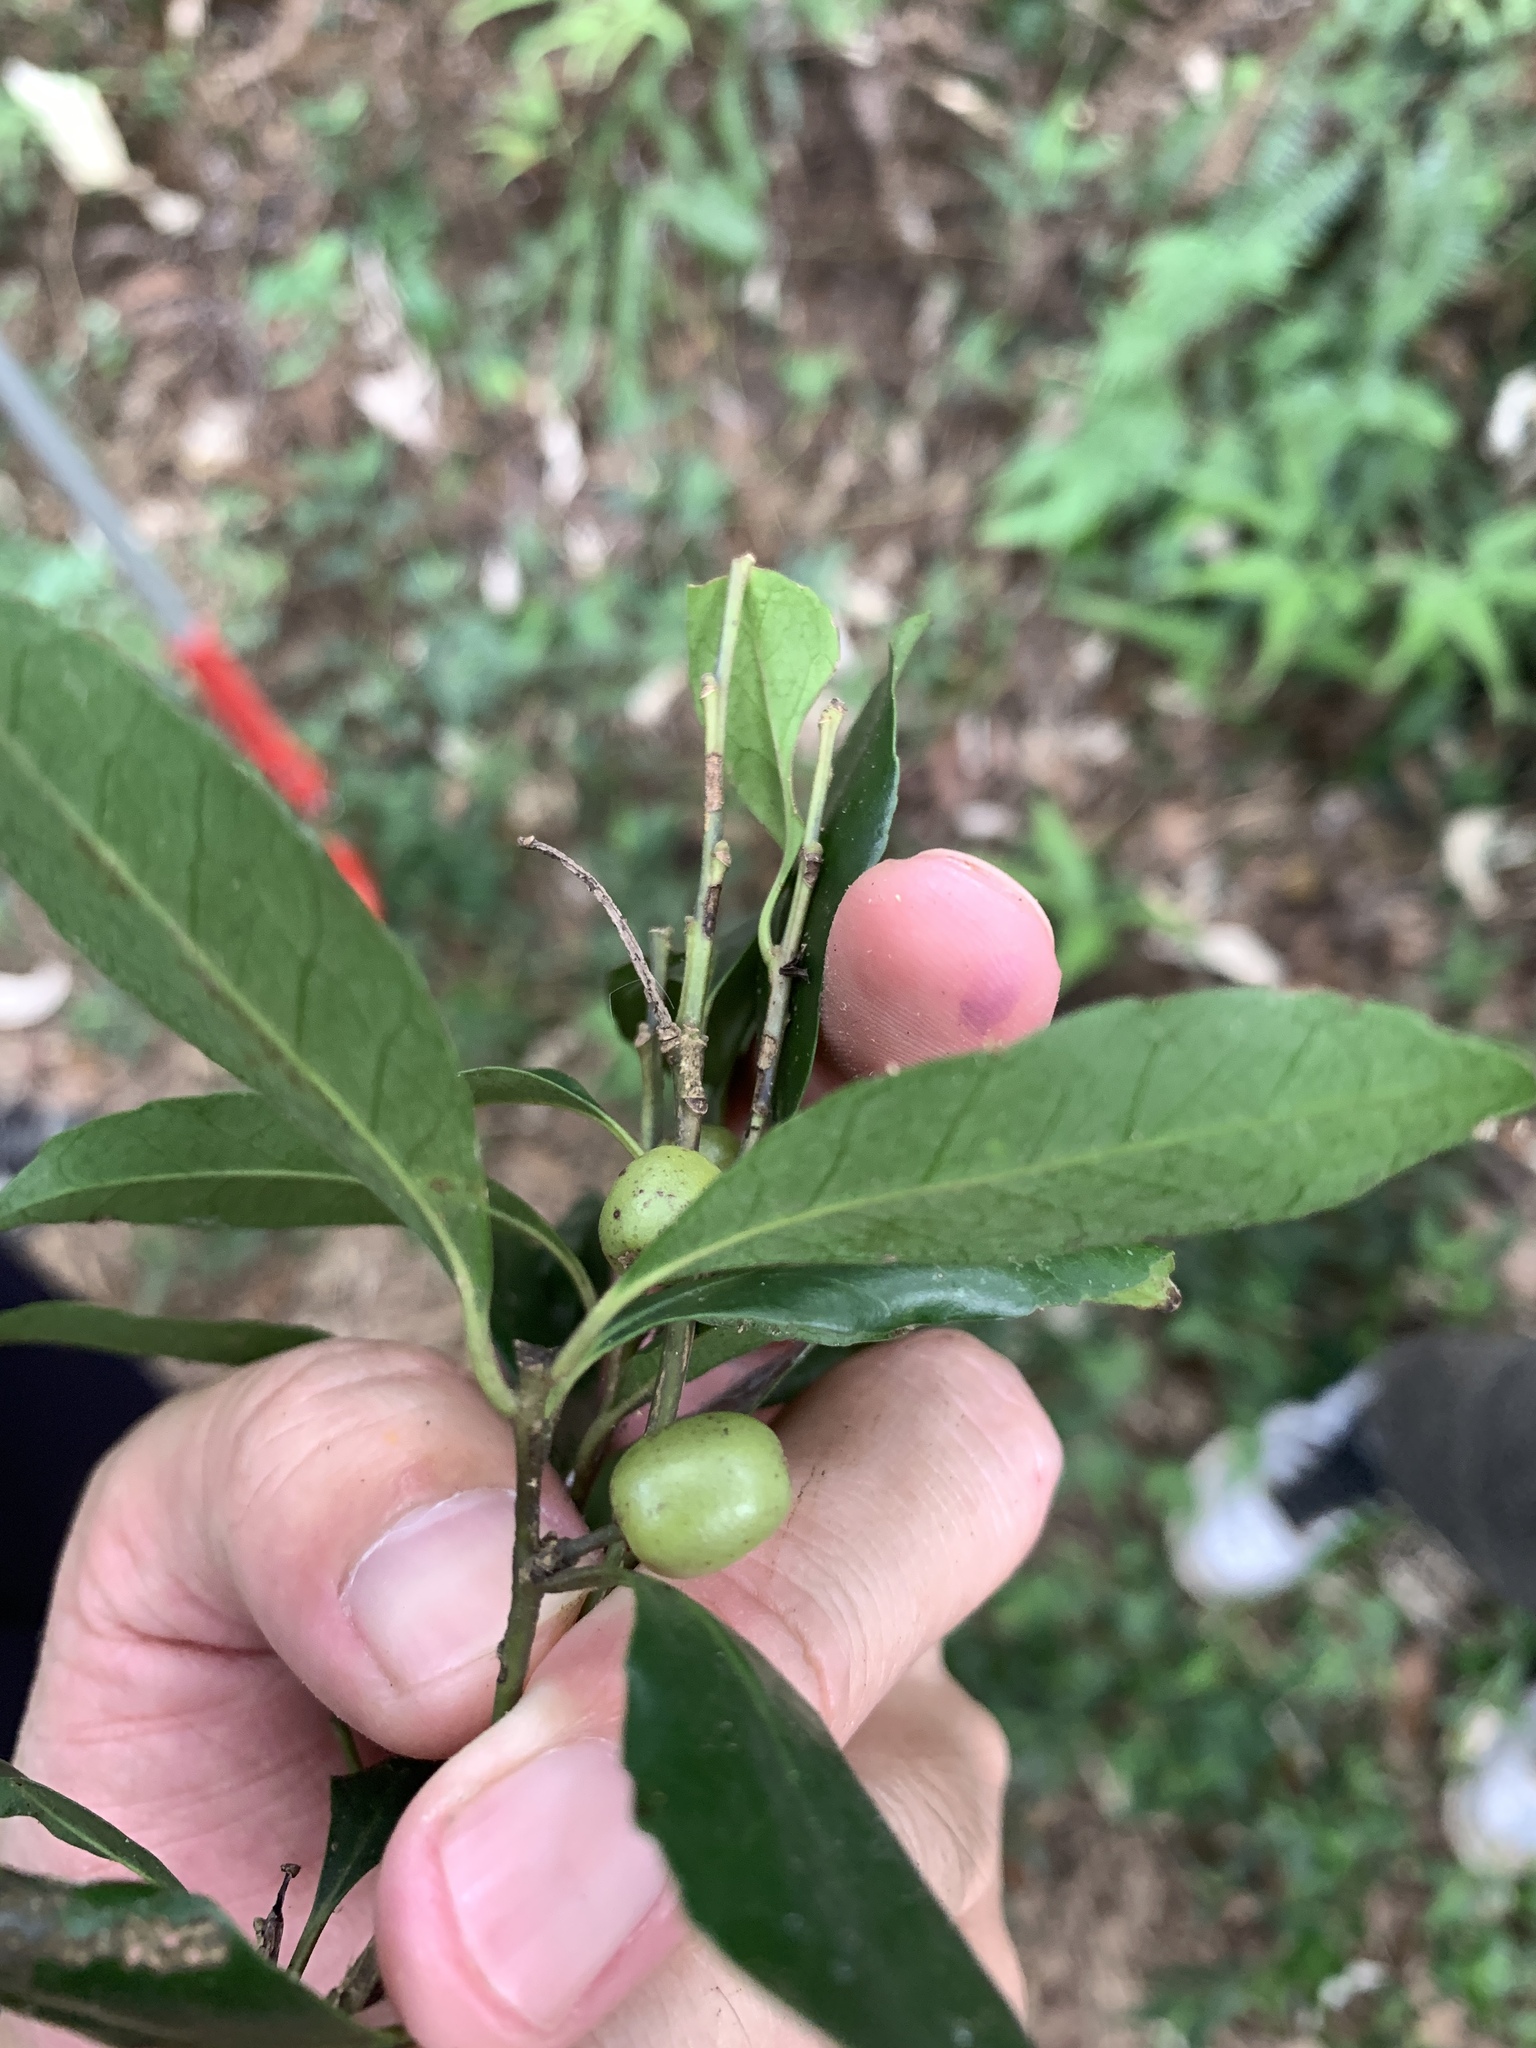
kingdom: Plantae
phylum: Tracheophyta
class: Magnoliopsida
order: Aquifoliales
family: Aquifoliaceae
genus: Ilex
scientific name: Ilex maximowicziana
